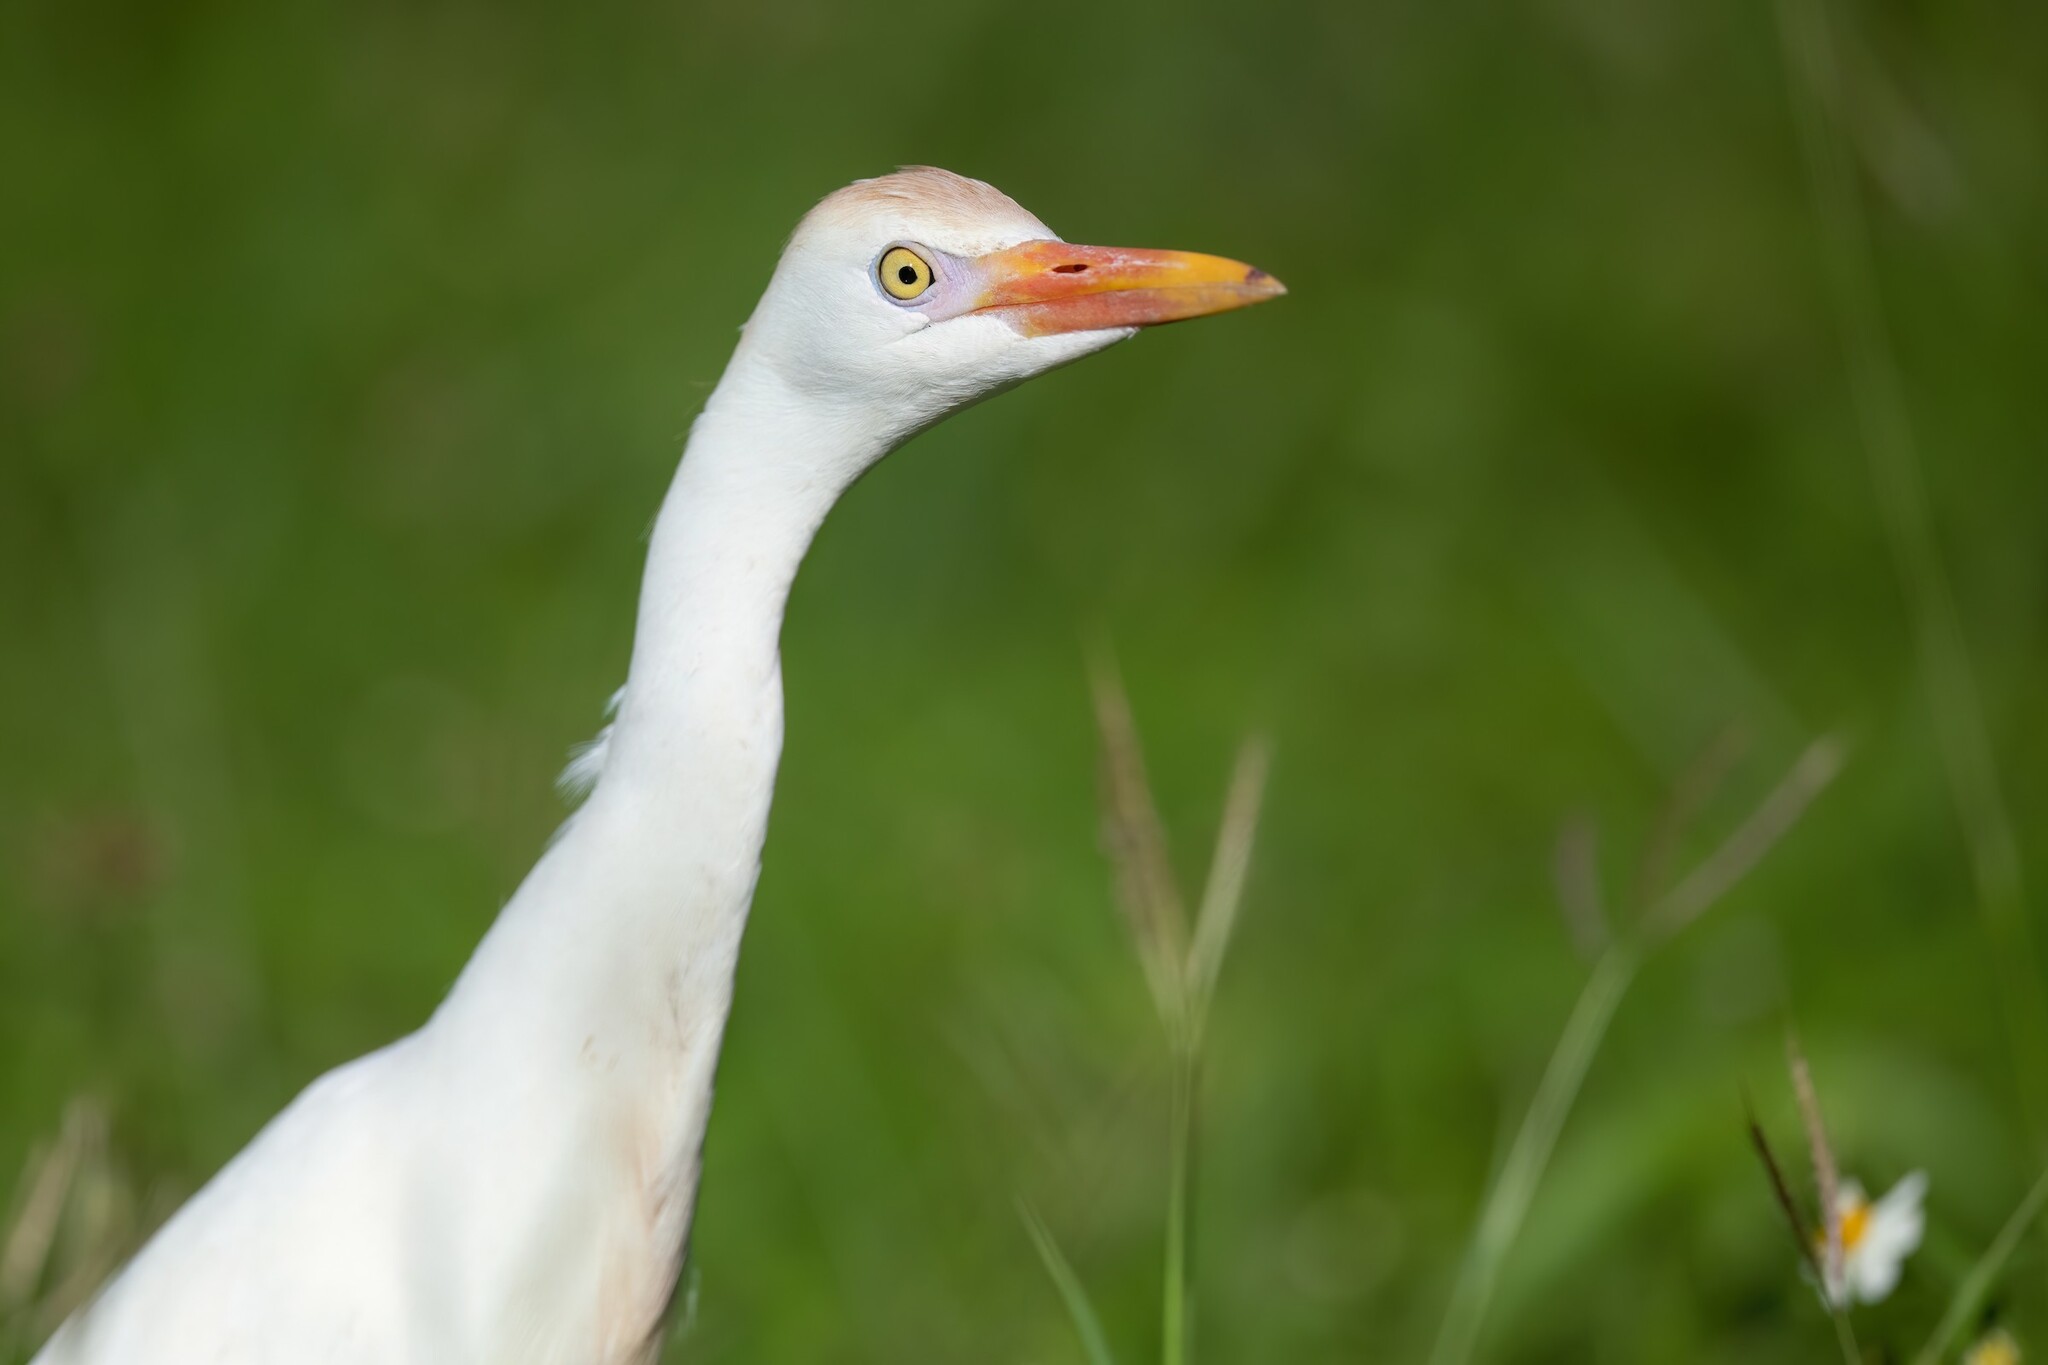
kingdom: Animalia
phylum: Chordata
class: Aves
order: Pelecaniformes
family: Ardeidae
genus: Bubulcus
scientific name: Bubulcus ibis
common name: Cattle egret
